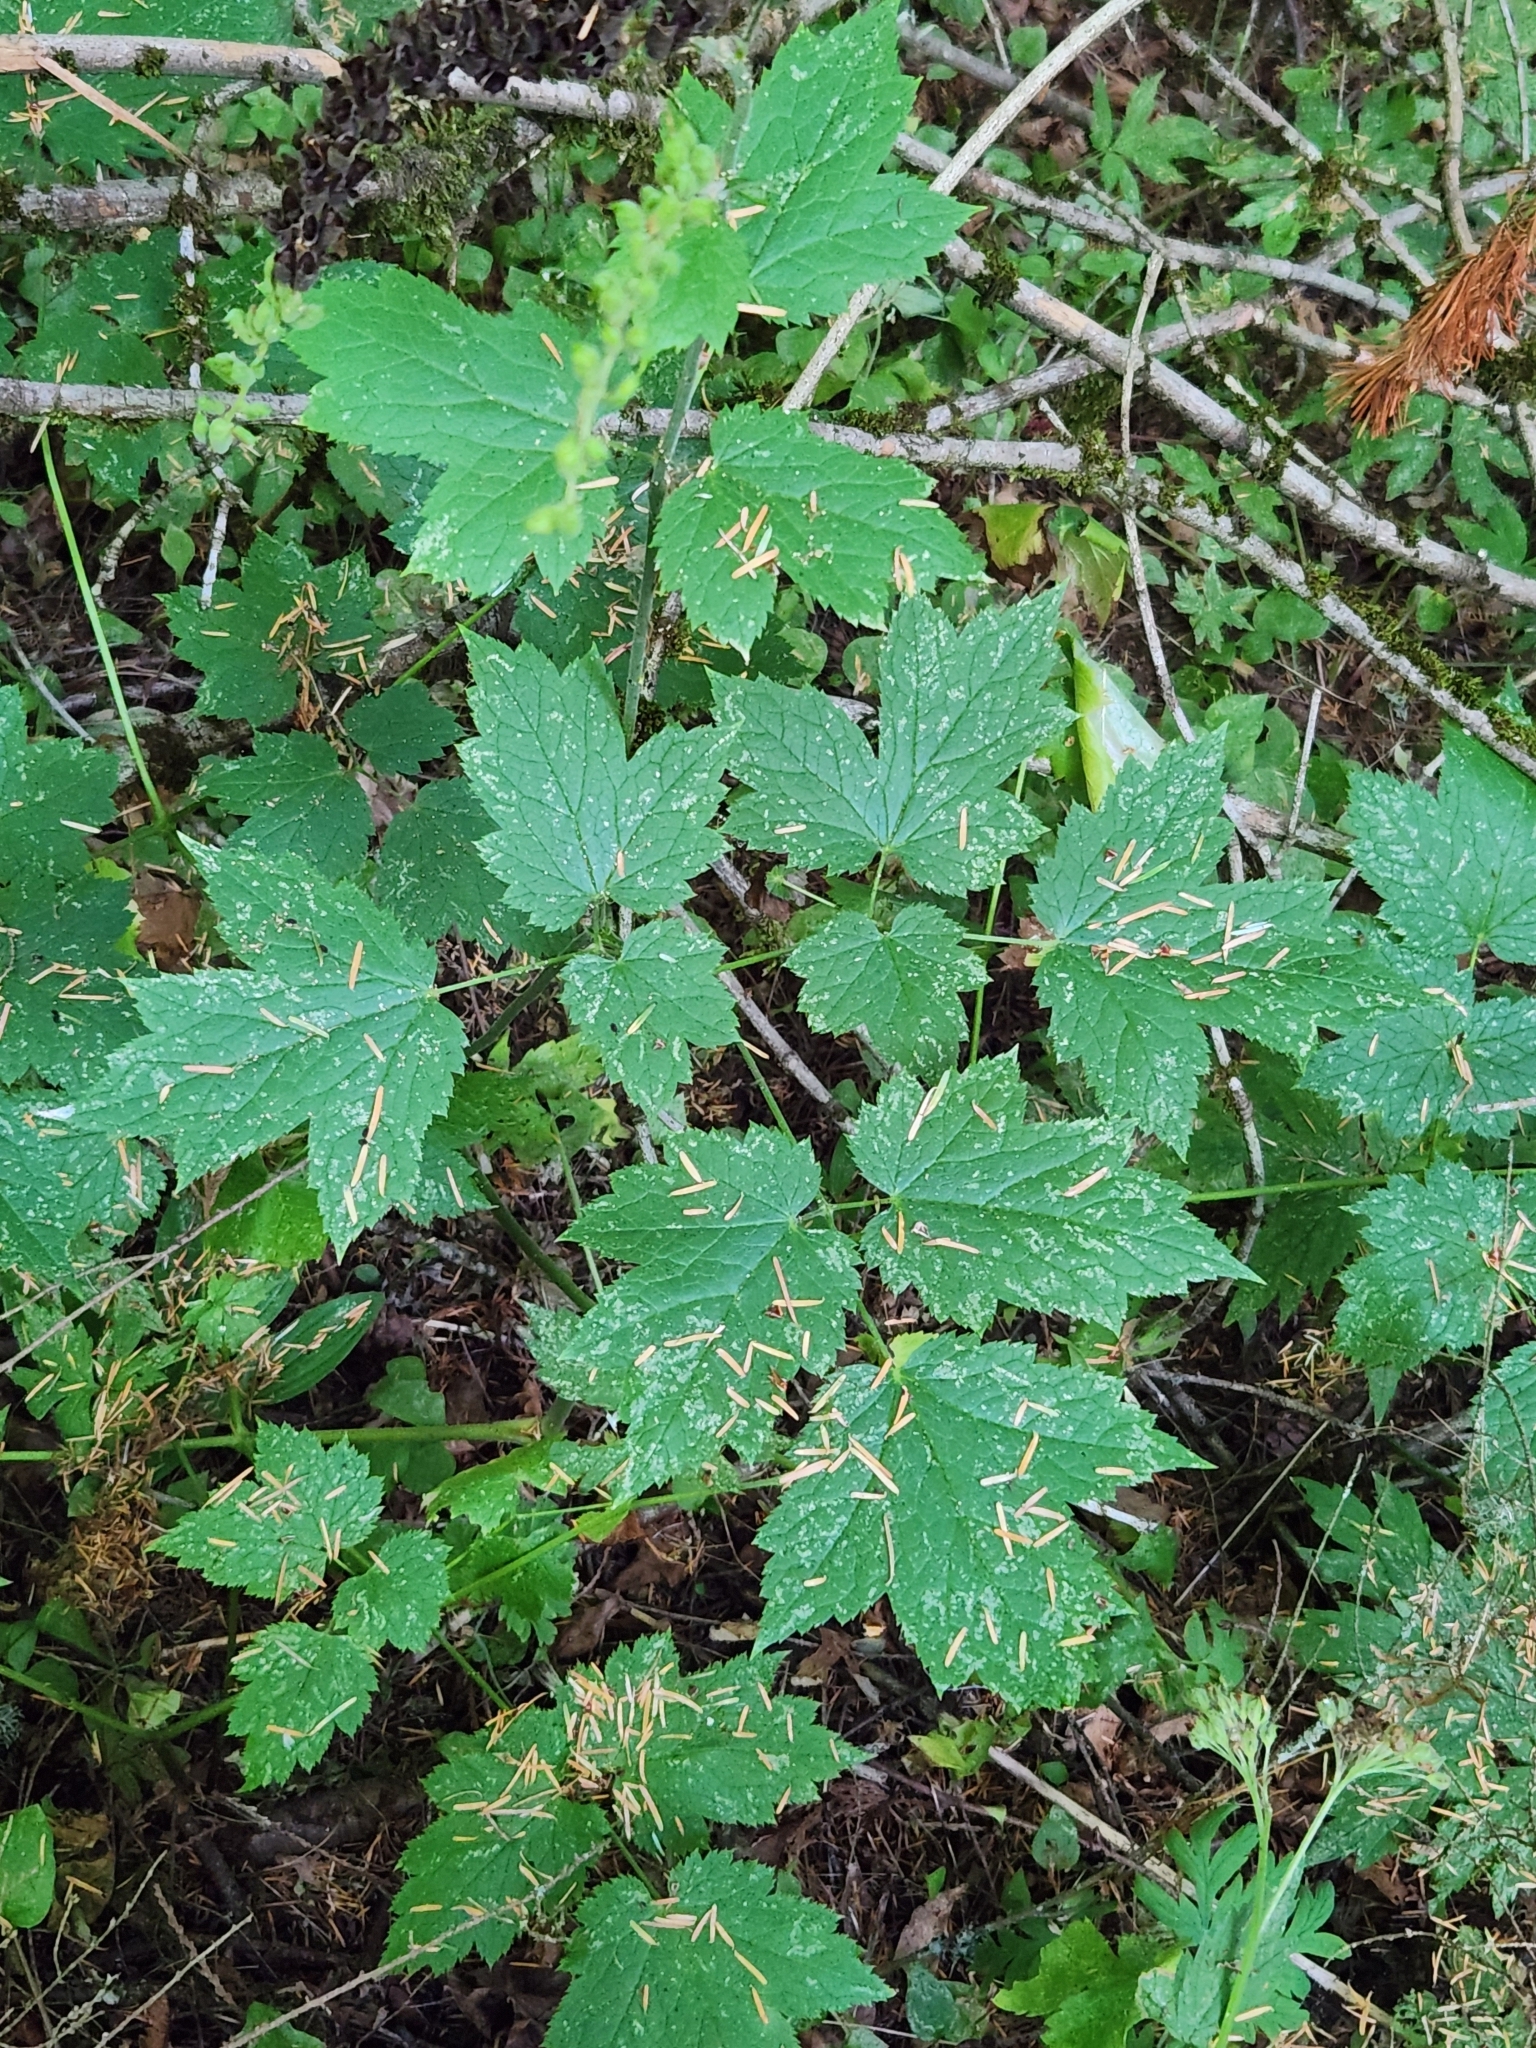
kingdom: Plantae
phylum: Tracheophyta
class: Magnoliopsida
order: Ranunculales
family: Ranunculaceae
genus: Actaea
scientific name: Actaea elata
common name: Tall bugbane
